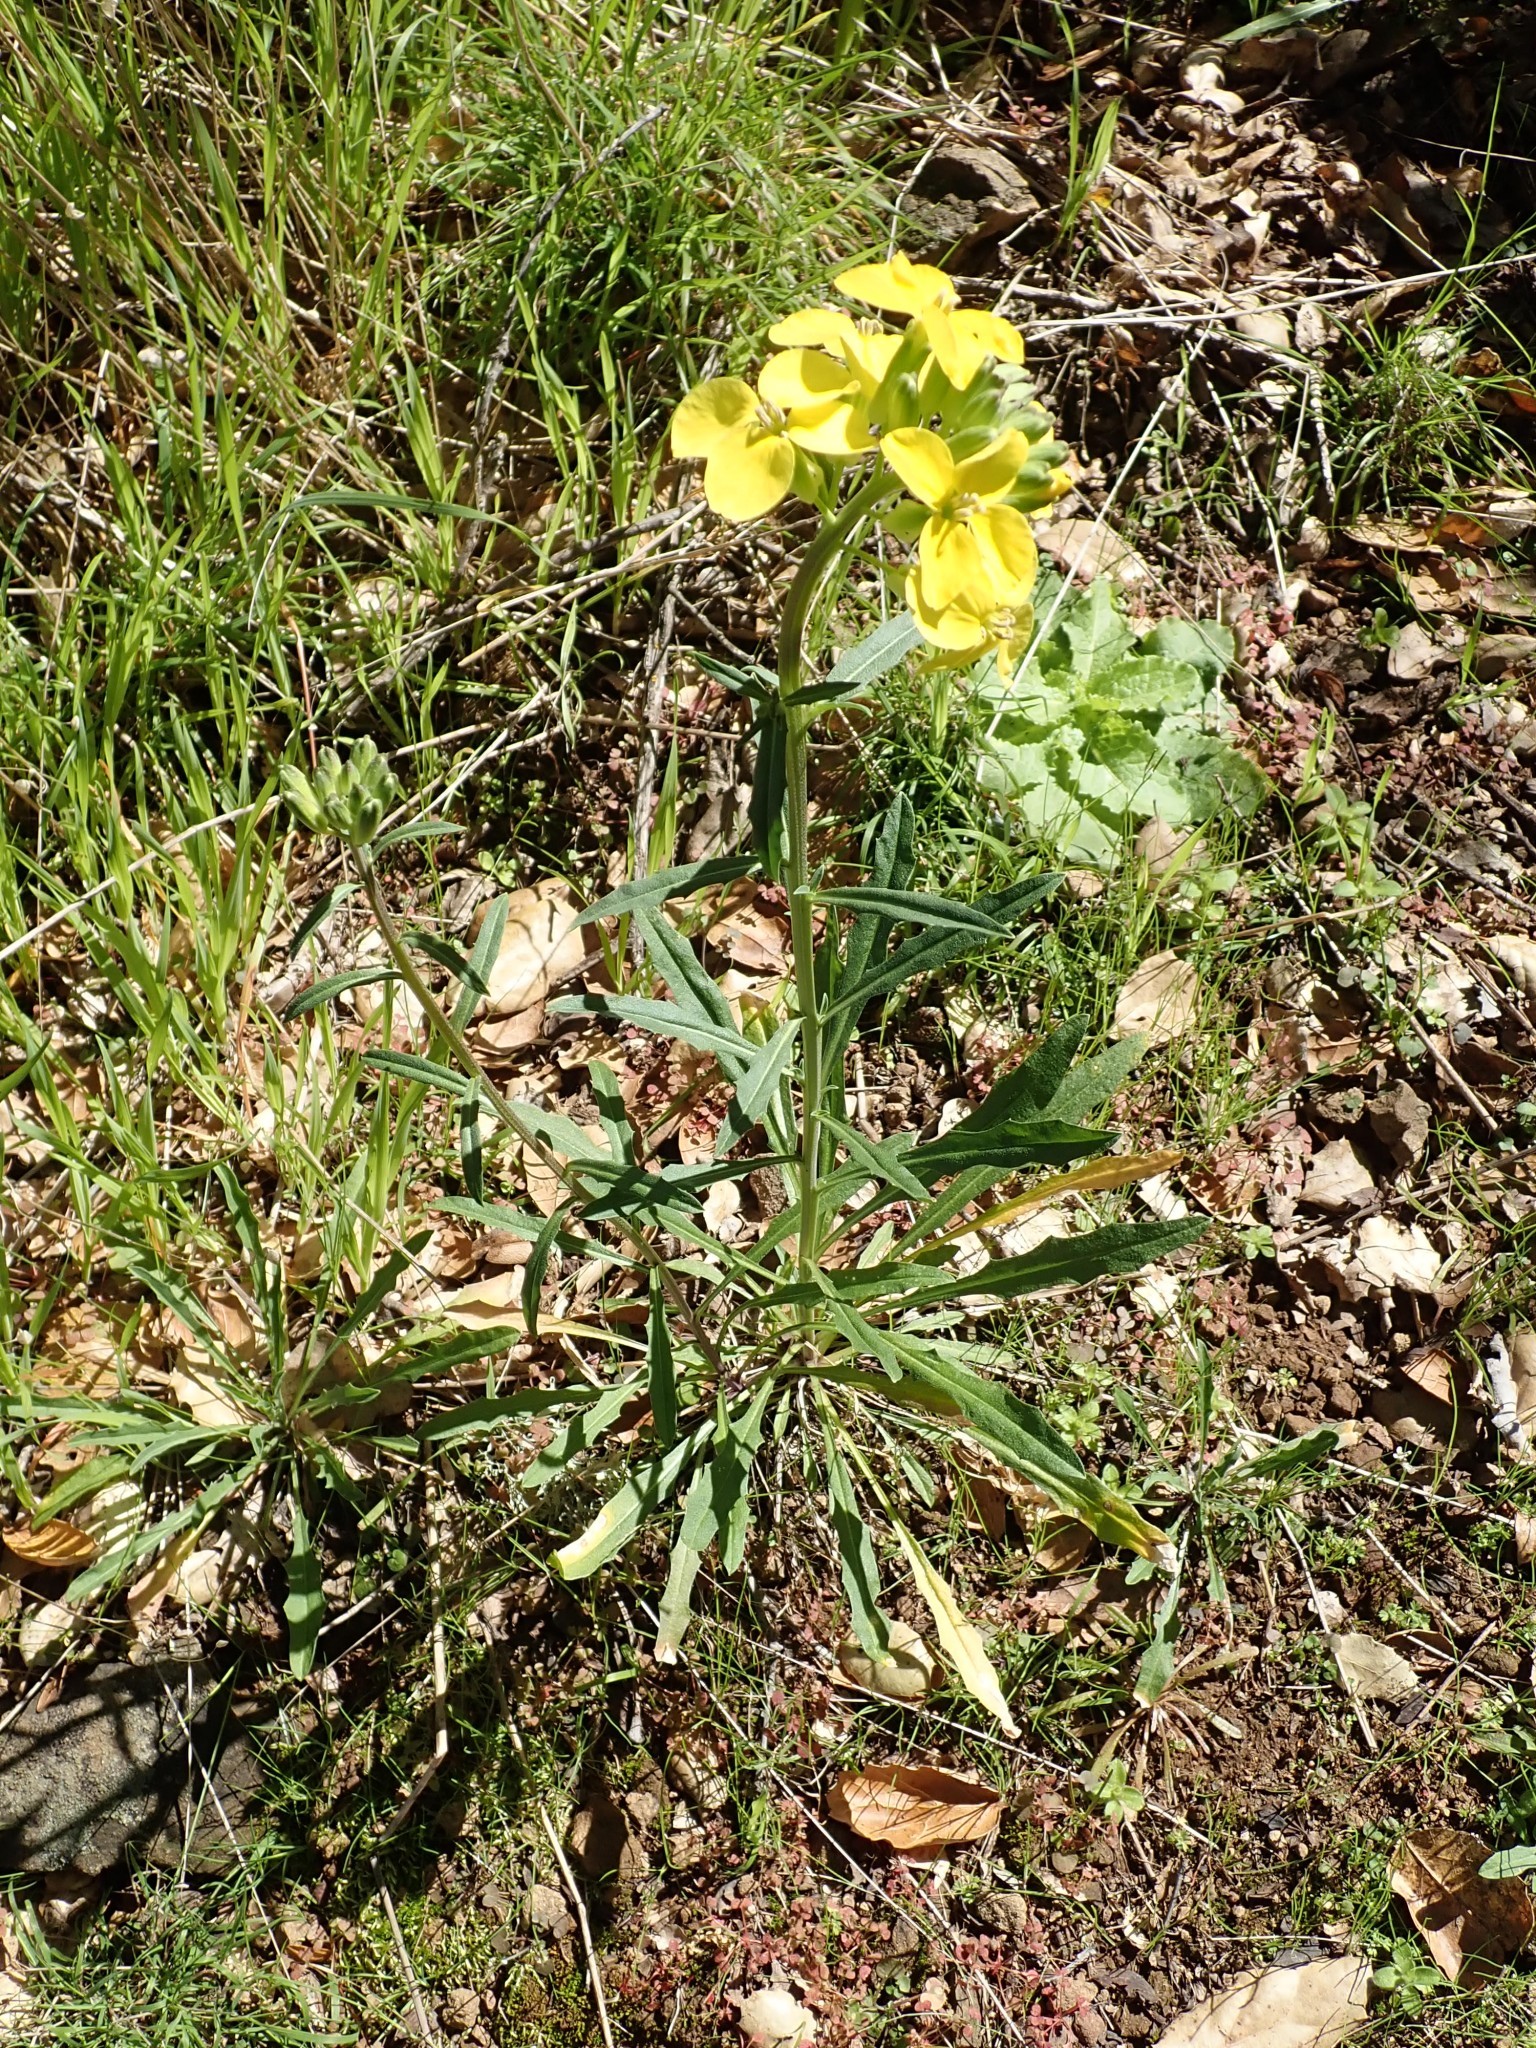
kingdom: Plantae
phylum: Tracheophyta
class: Magnoliopsida
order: Brassicales
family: Brassicaceae
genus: Erysimum
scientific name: Erysimum franciscanum
